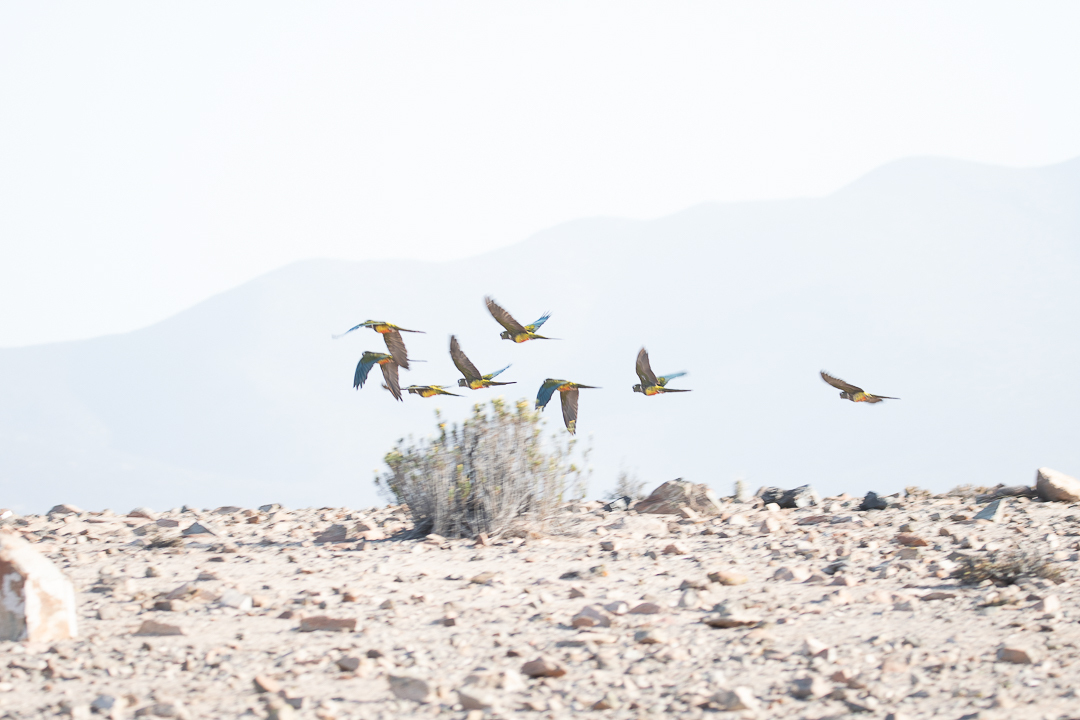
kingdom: Animalia
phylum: Chordata
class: Aves
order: Psittaciformes
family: Psittacidae
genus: Cyanoliseus
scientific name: Cyanoliseus patagonus
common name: Burrowing parrot
